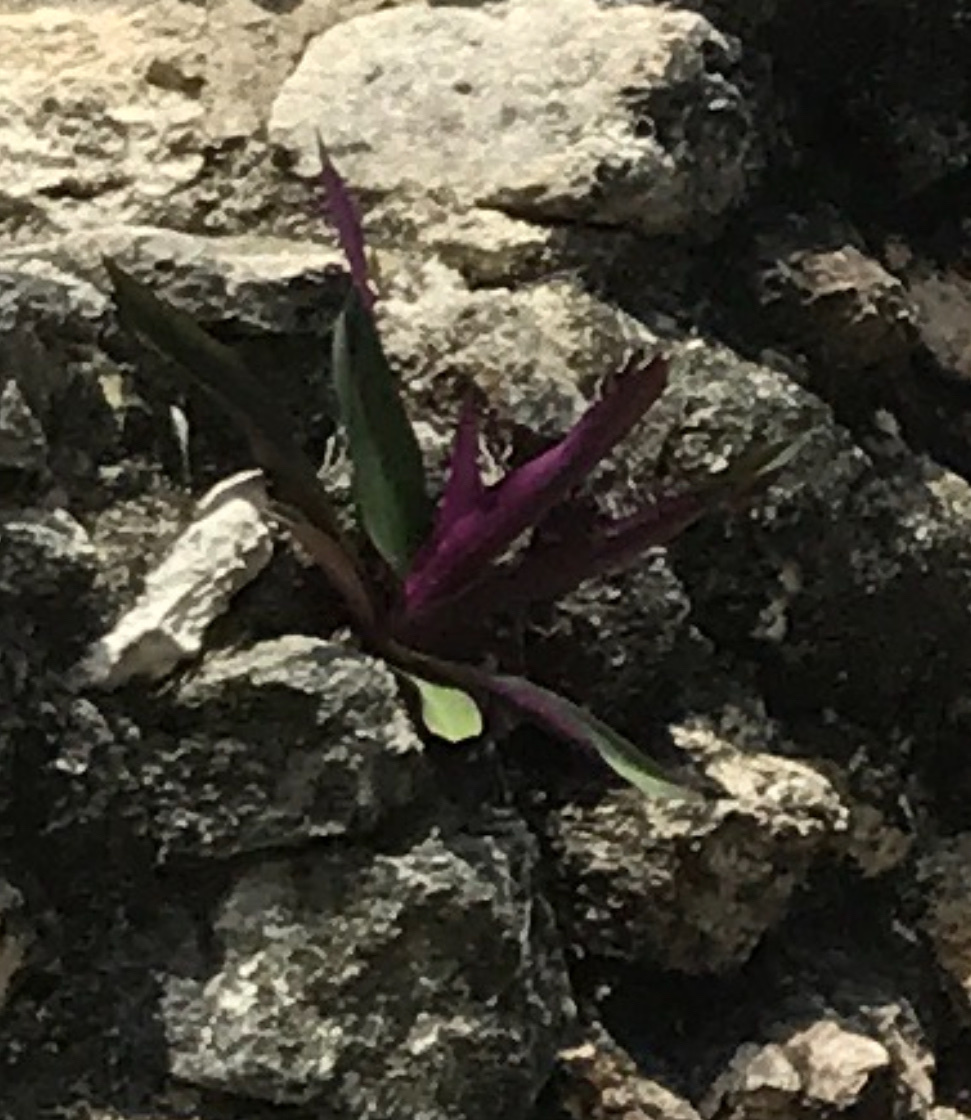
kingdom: Plantae
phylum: Tracheophyta
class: Liliopsida
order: Commelinales
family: Commelinaceae
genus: Tradescantia
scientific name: Tradescantia spathacea
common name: Boatlily
